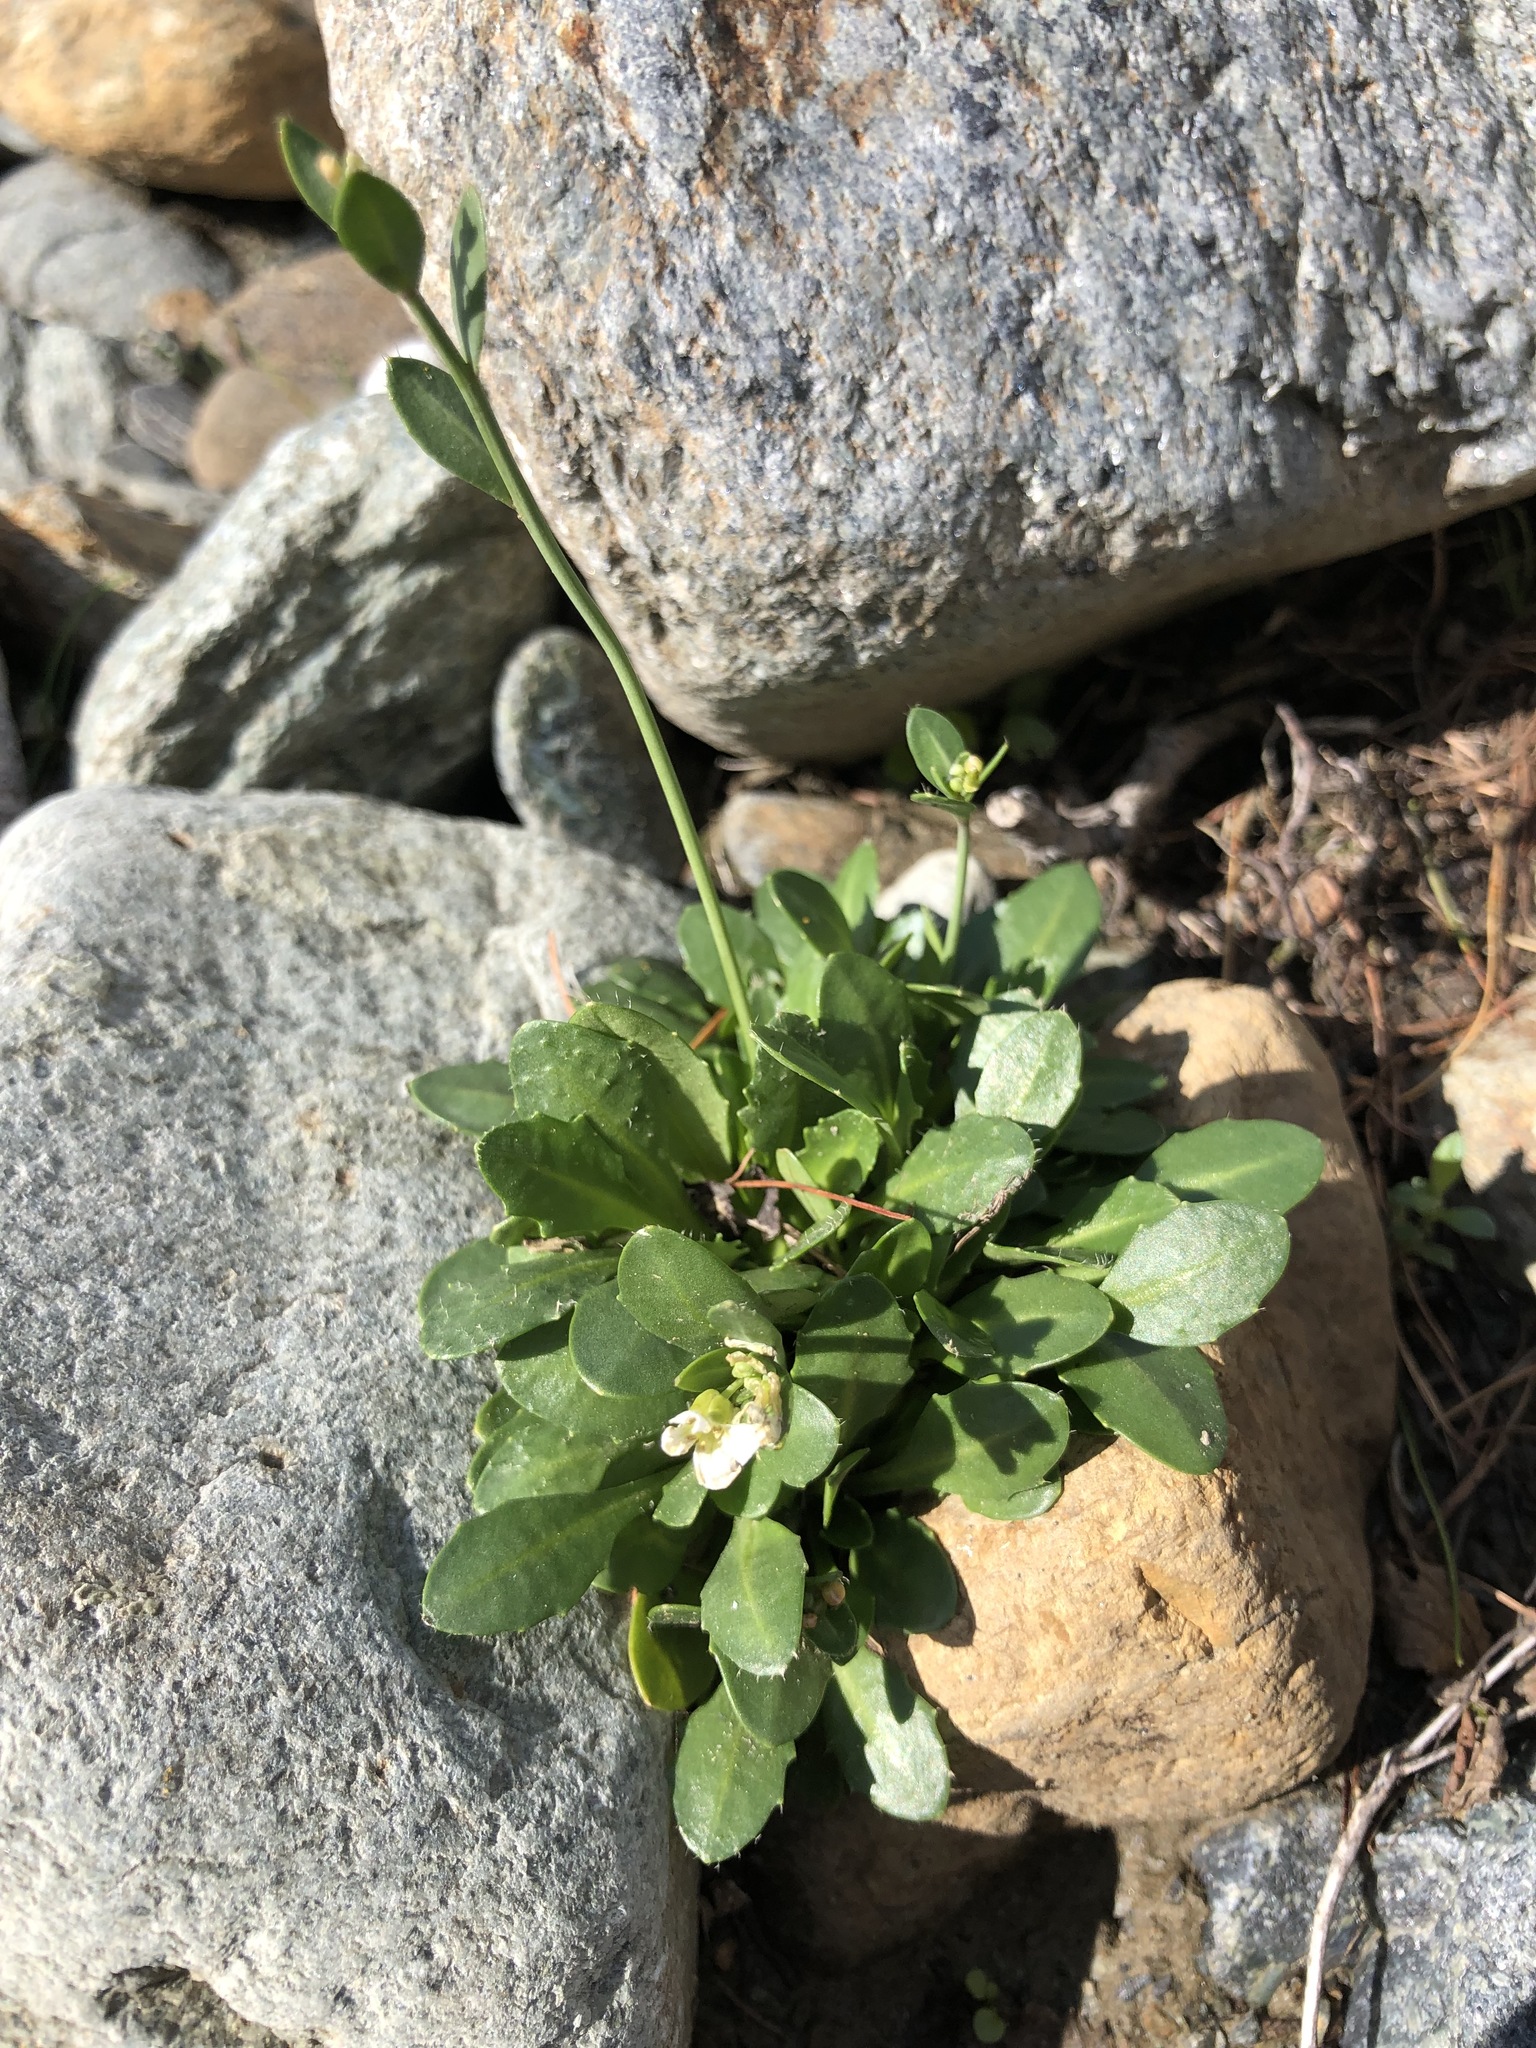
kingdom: Plantae
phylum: Tracheophyta
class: Magnoliopsida
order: Brassicales
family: Brassicaceae
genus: Arabidopsis
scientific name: Arabidopsis lyrata
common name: Lyrate rockcress
